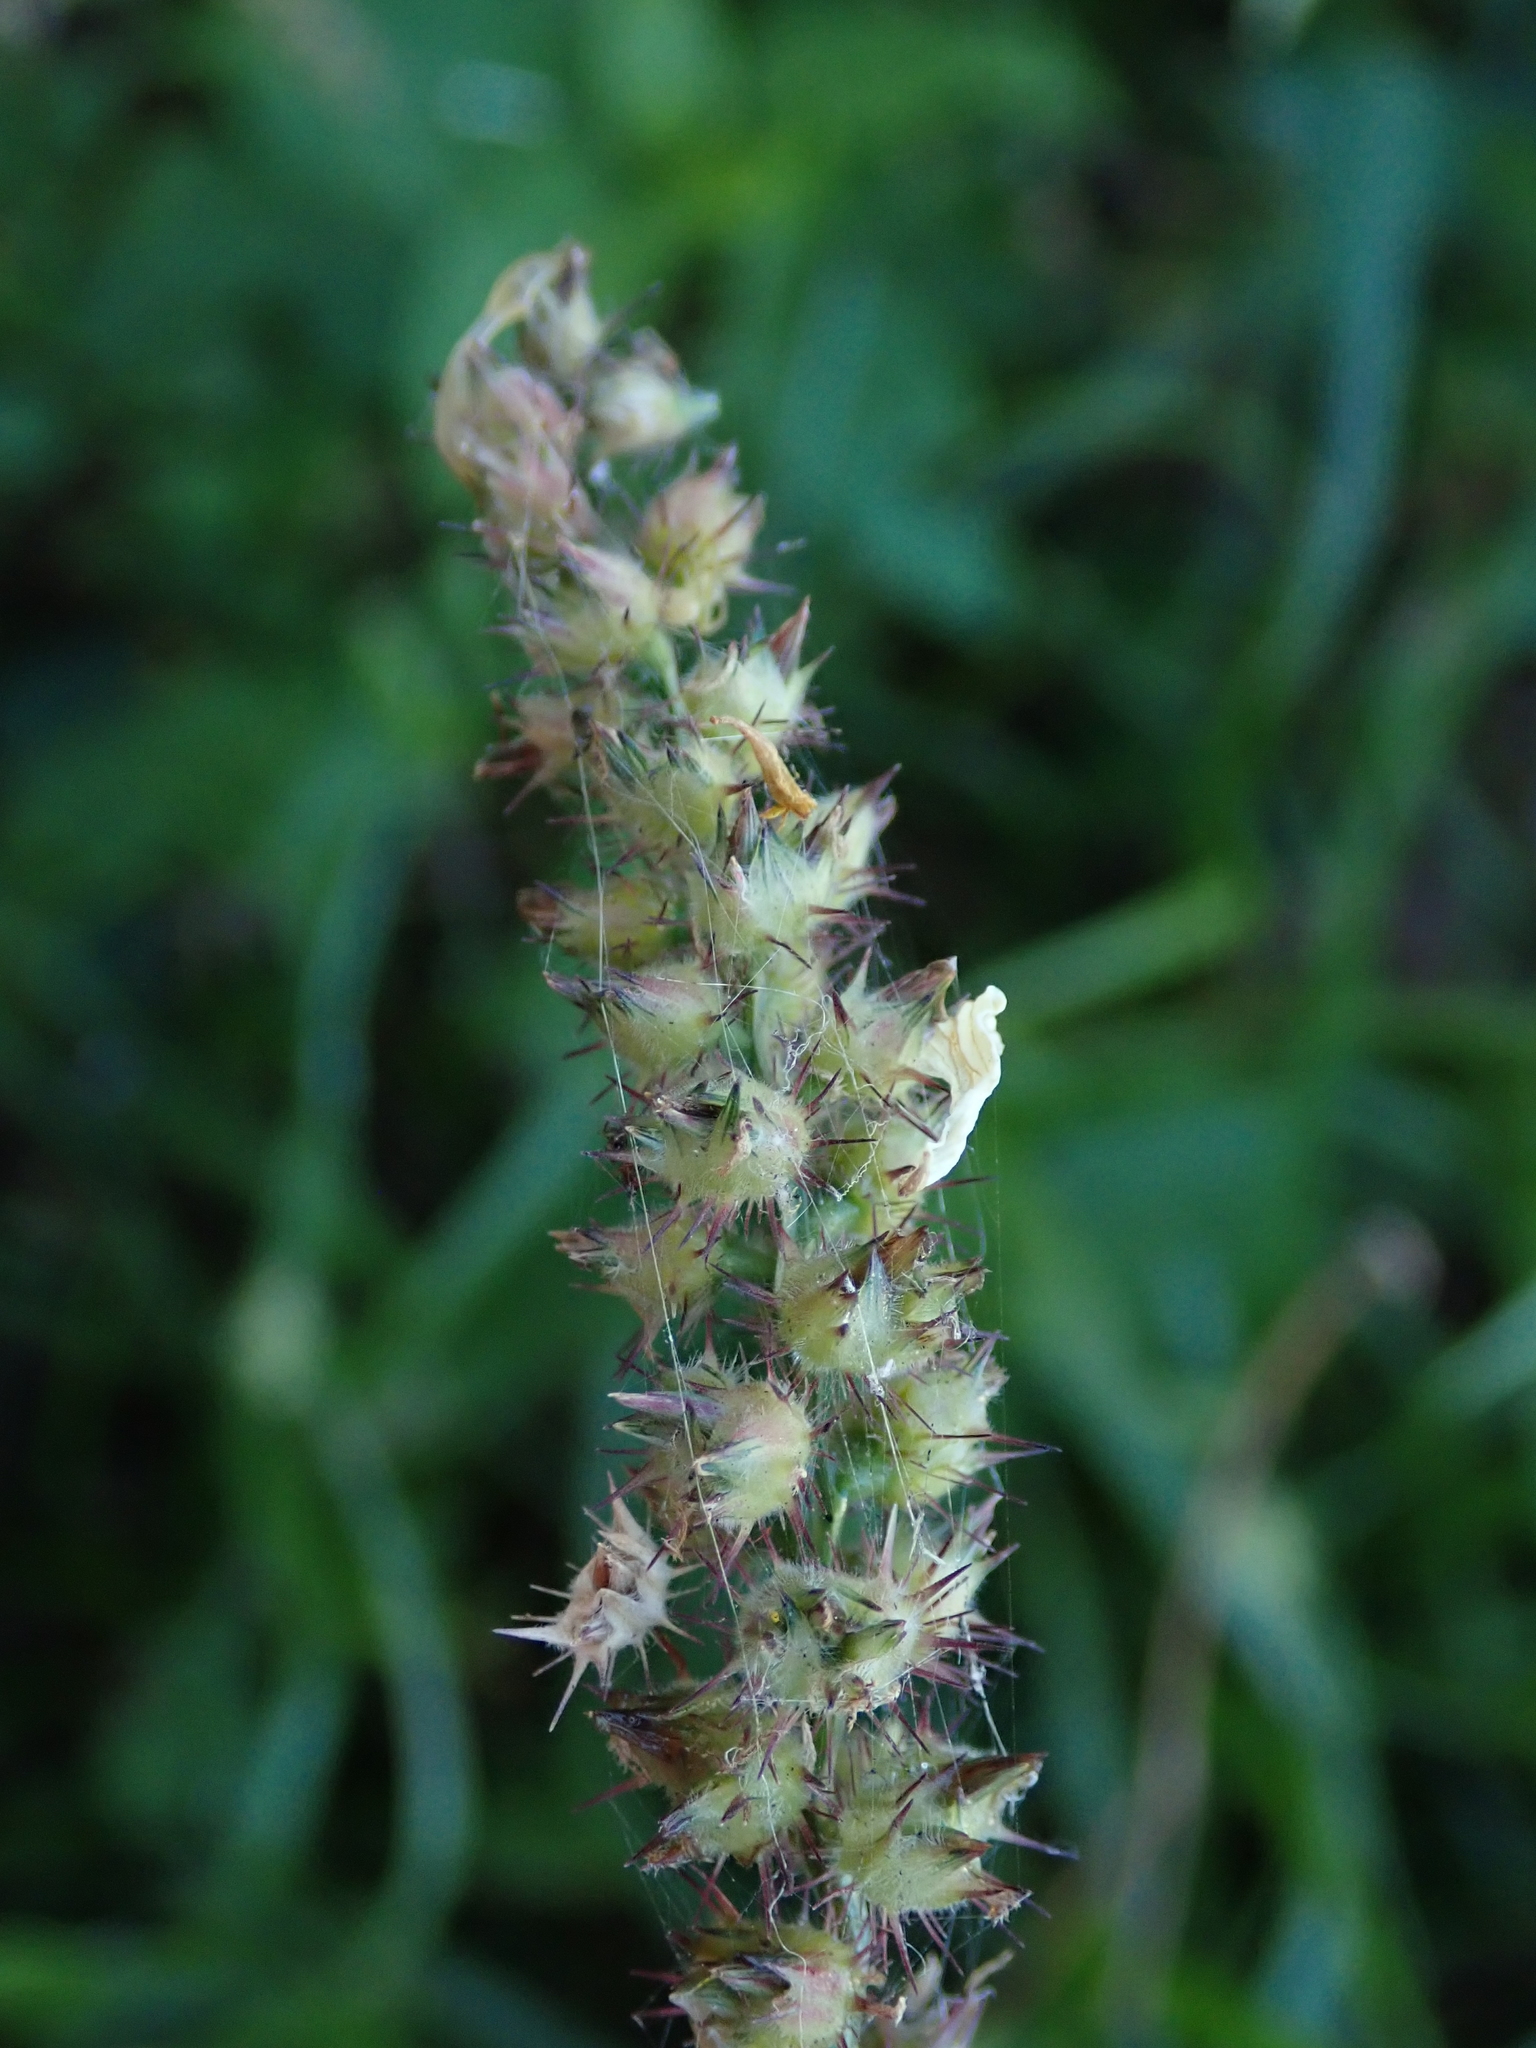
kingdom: Plantae
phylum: Tracheophyta
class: Liliopsida
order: Poales
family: Poaceae
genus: Cenchrus
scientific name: Cenchrus echinatus
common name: Southern sandbur
